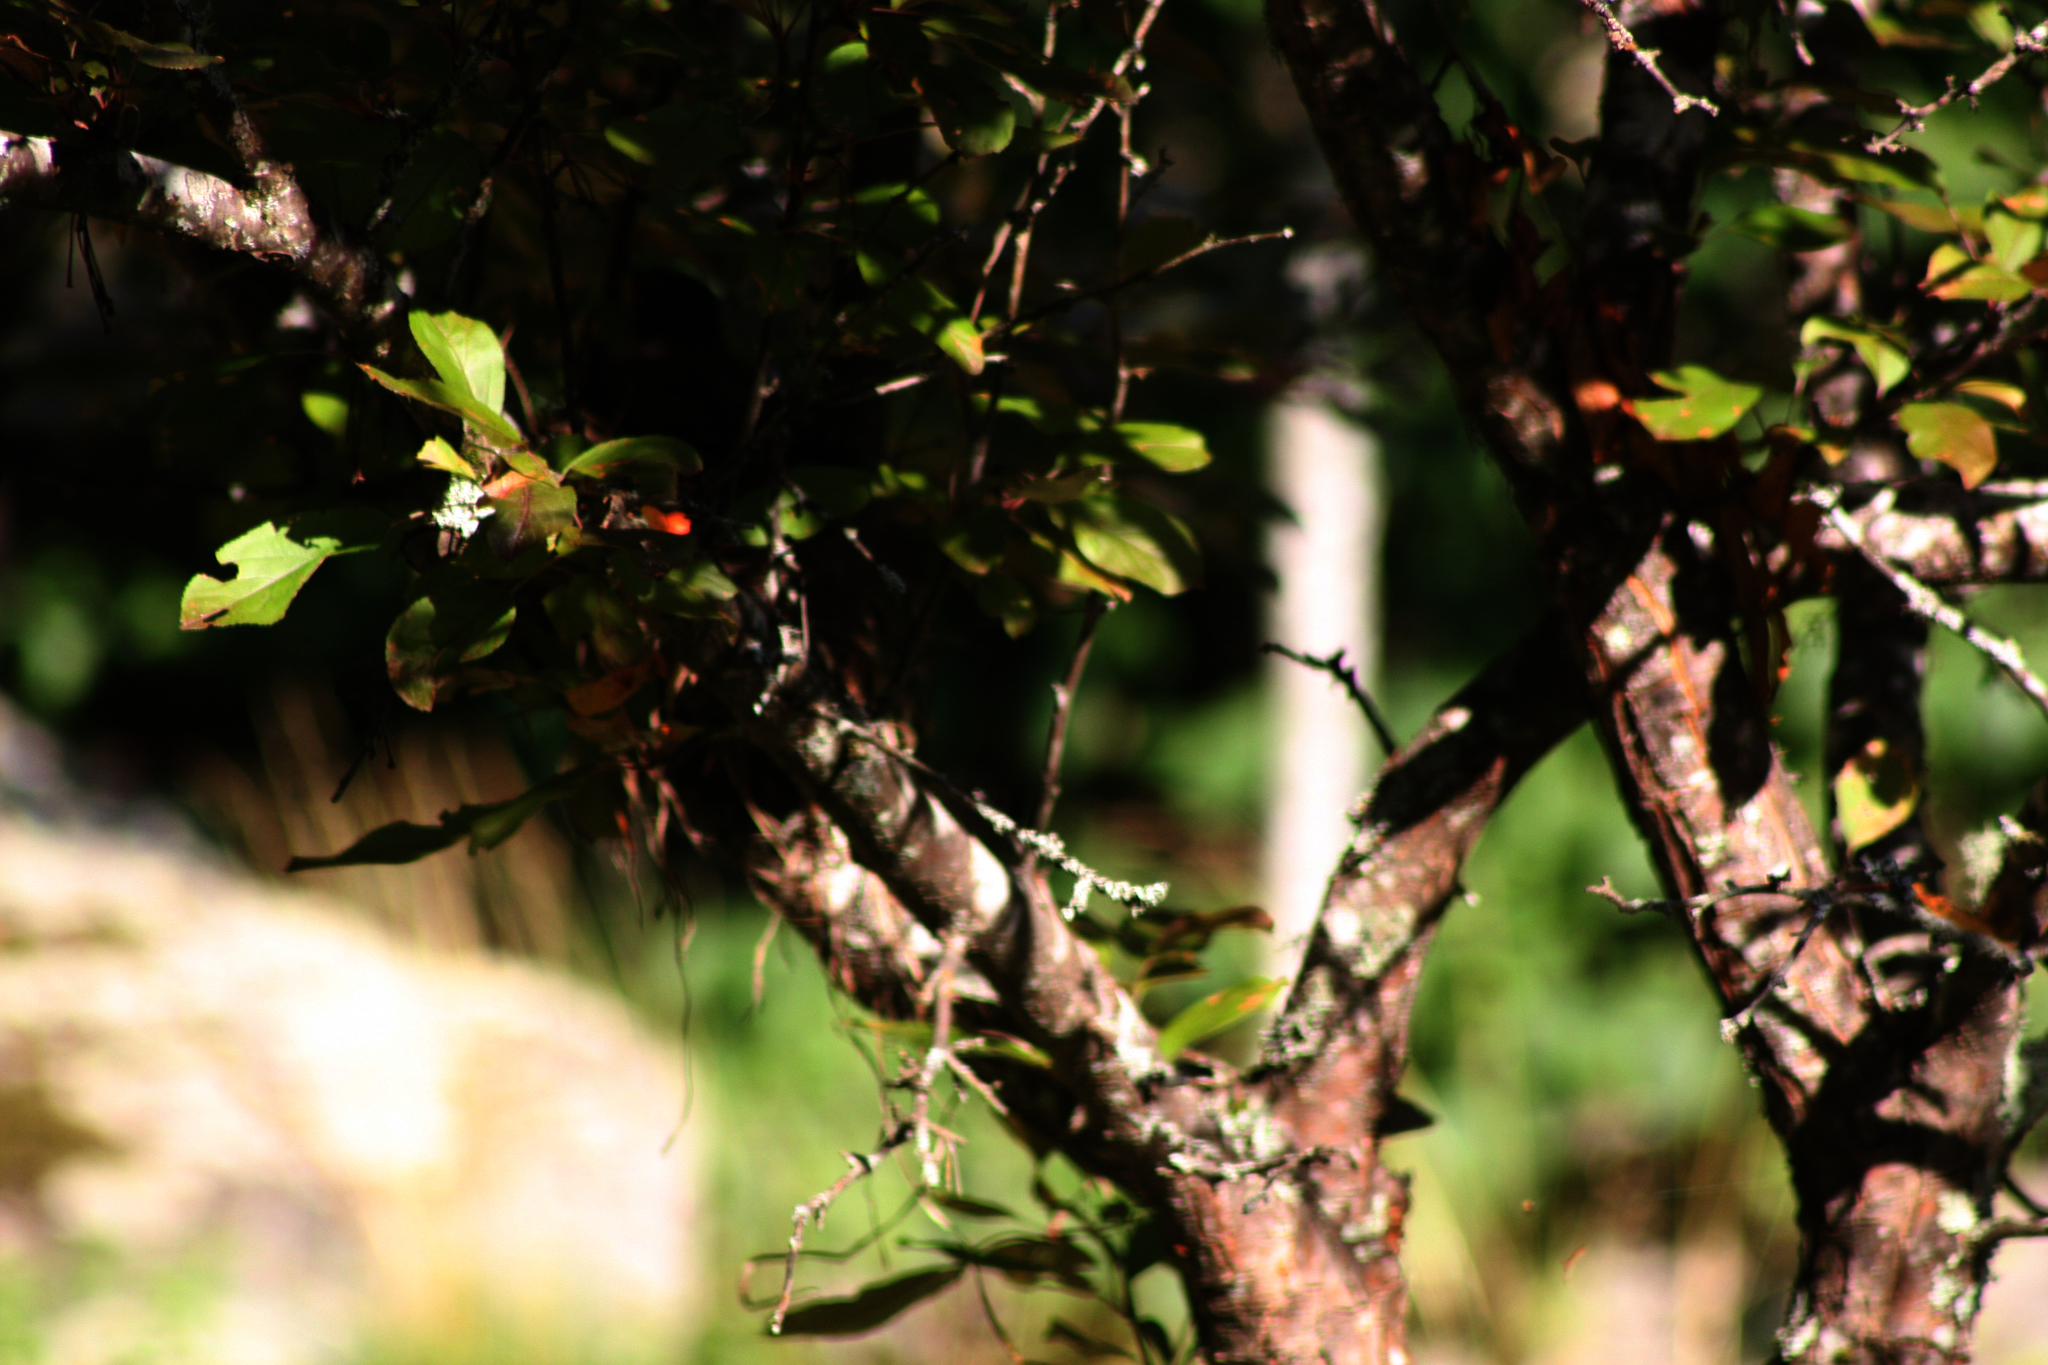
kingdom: Animalia
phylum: Chordata
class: Aves
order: Passeriformes
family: Turdidae
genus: Turdus
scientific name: Turdus migratorius
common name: American robin
